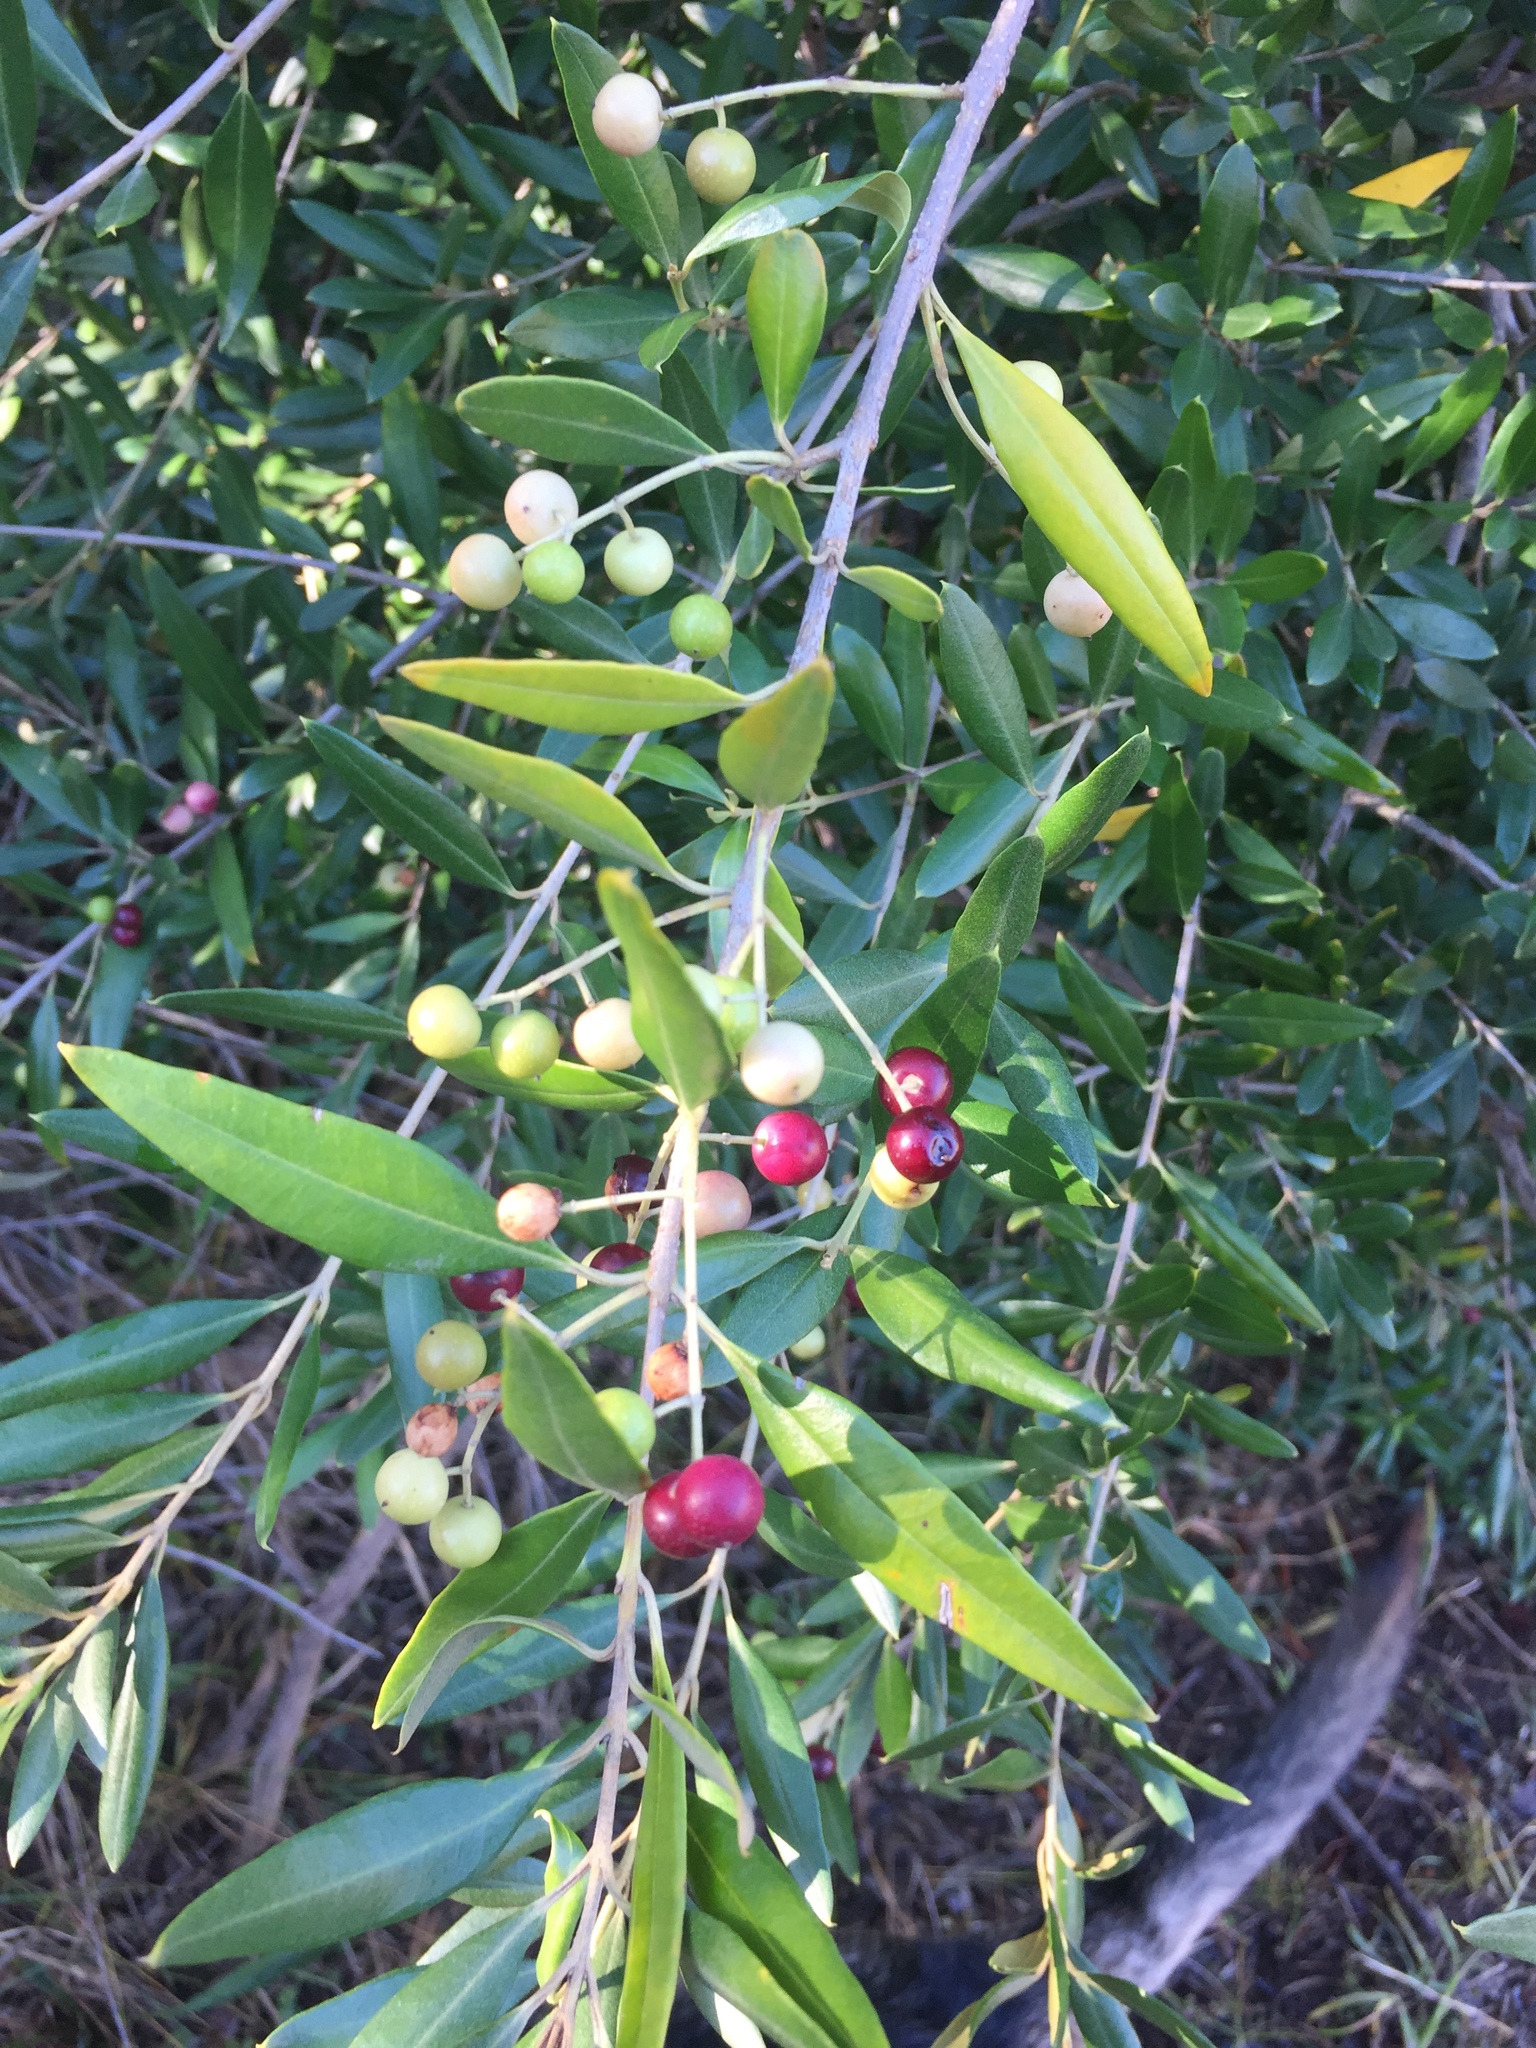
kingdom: Plantae
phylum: Tracheophyta
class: Magnoliopsida
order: Lamiales
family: Oleaceae
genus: Olea
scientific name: Olea europaea
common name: Olive
